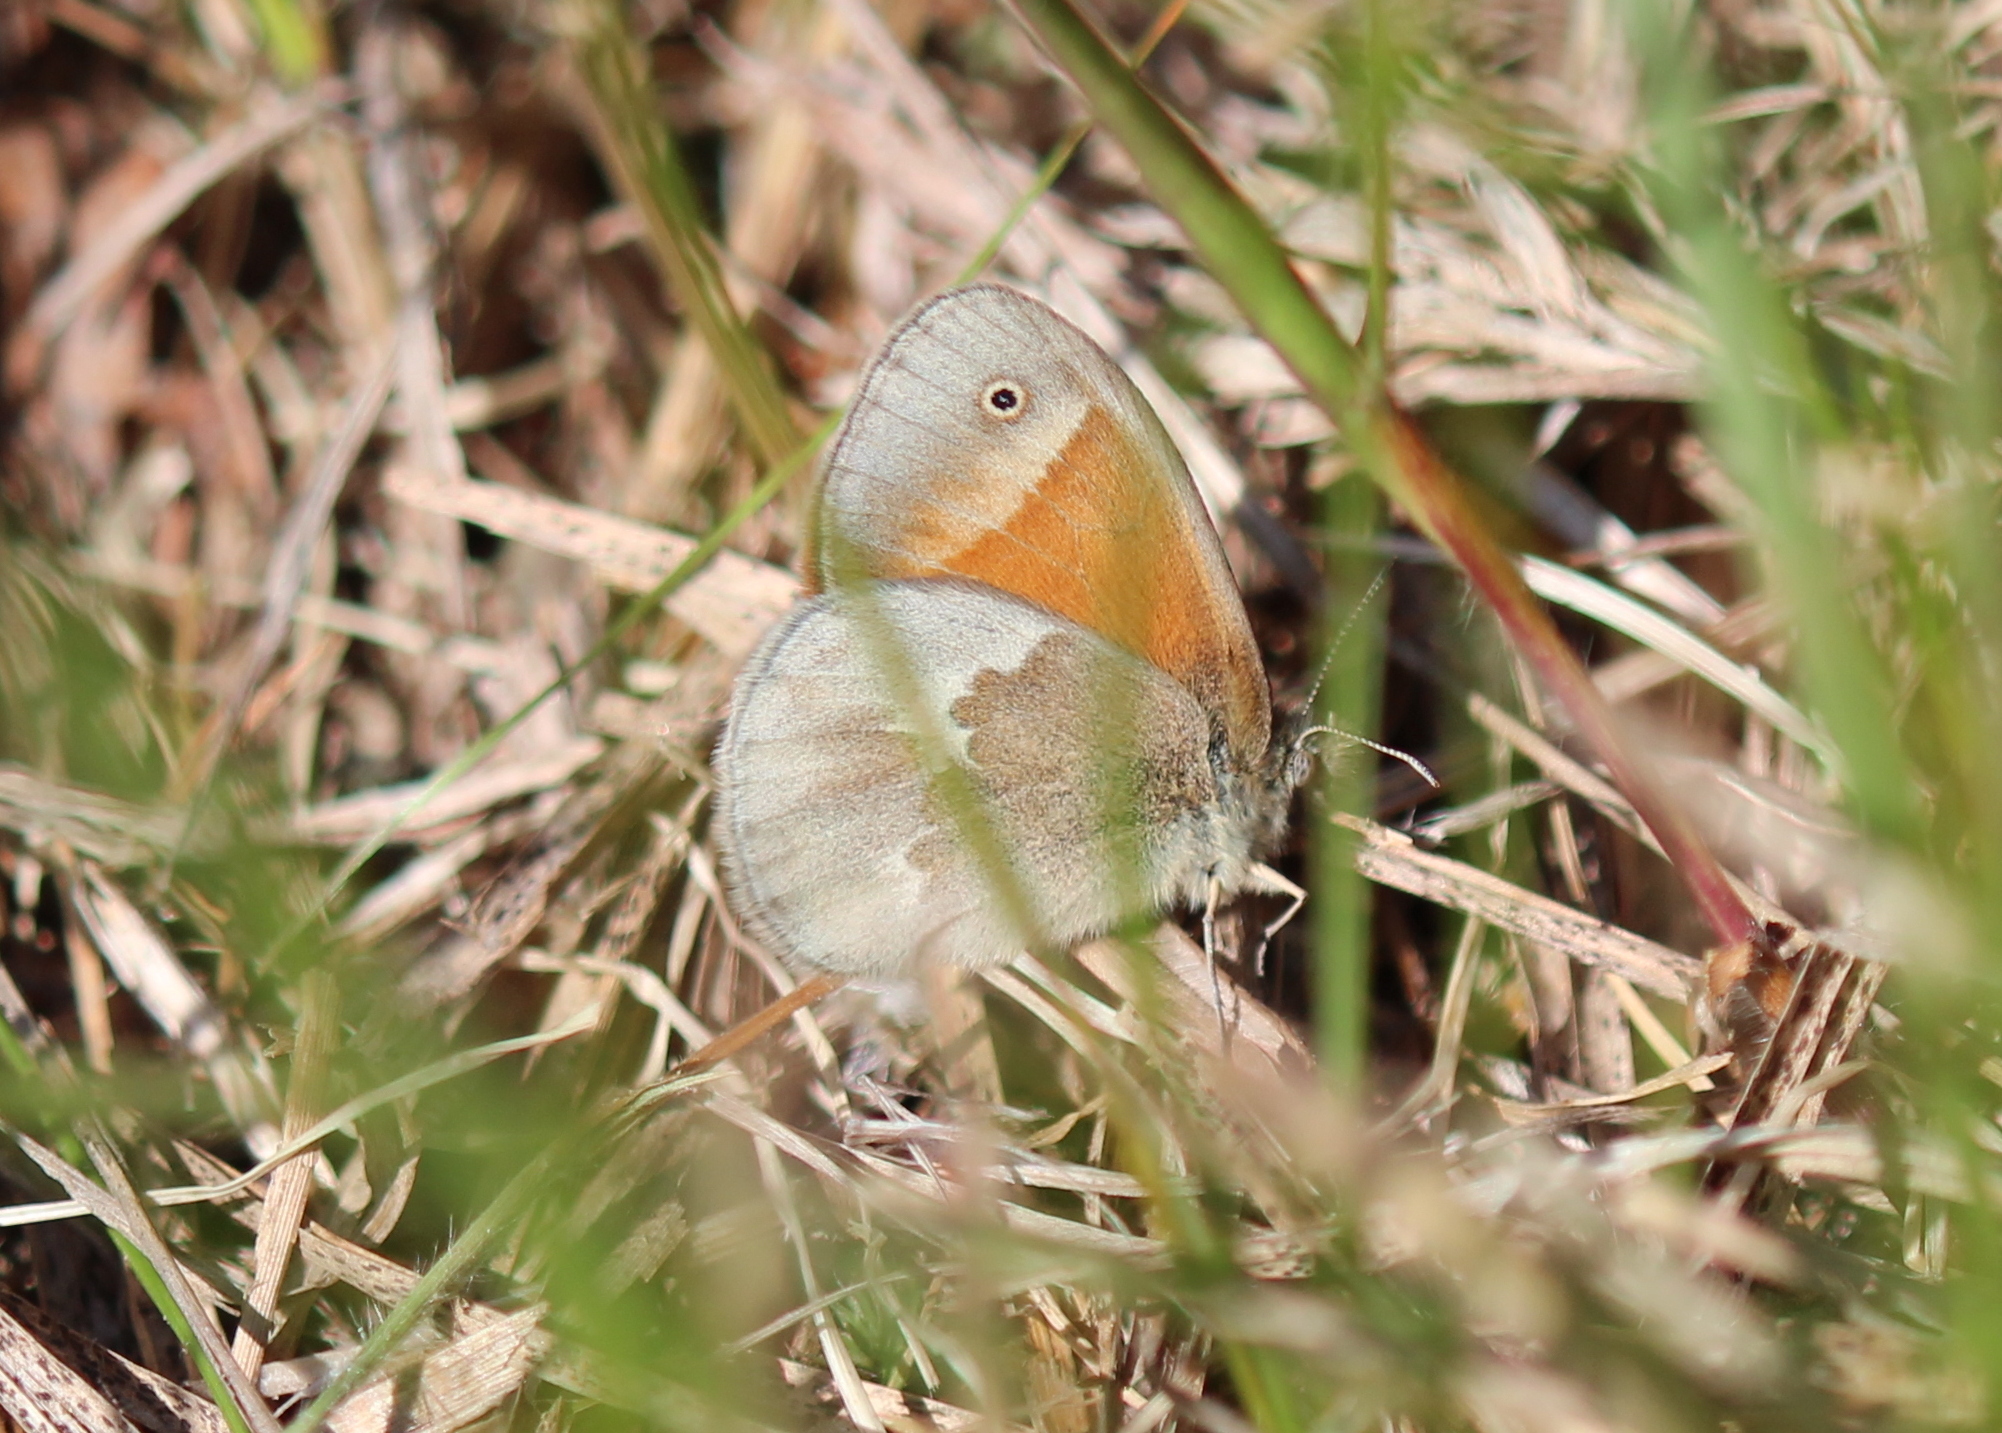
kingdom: Animalia
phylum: Arthropoda
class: Insecta
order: Lepidoptera
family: Nymphalidae
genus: Coenonympha
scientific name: Coenonympha california
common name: Common ringlet
